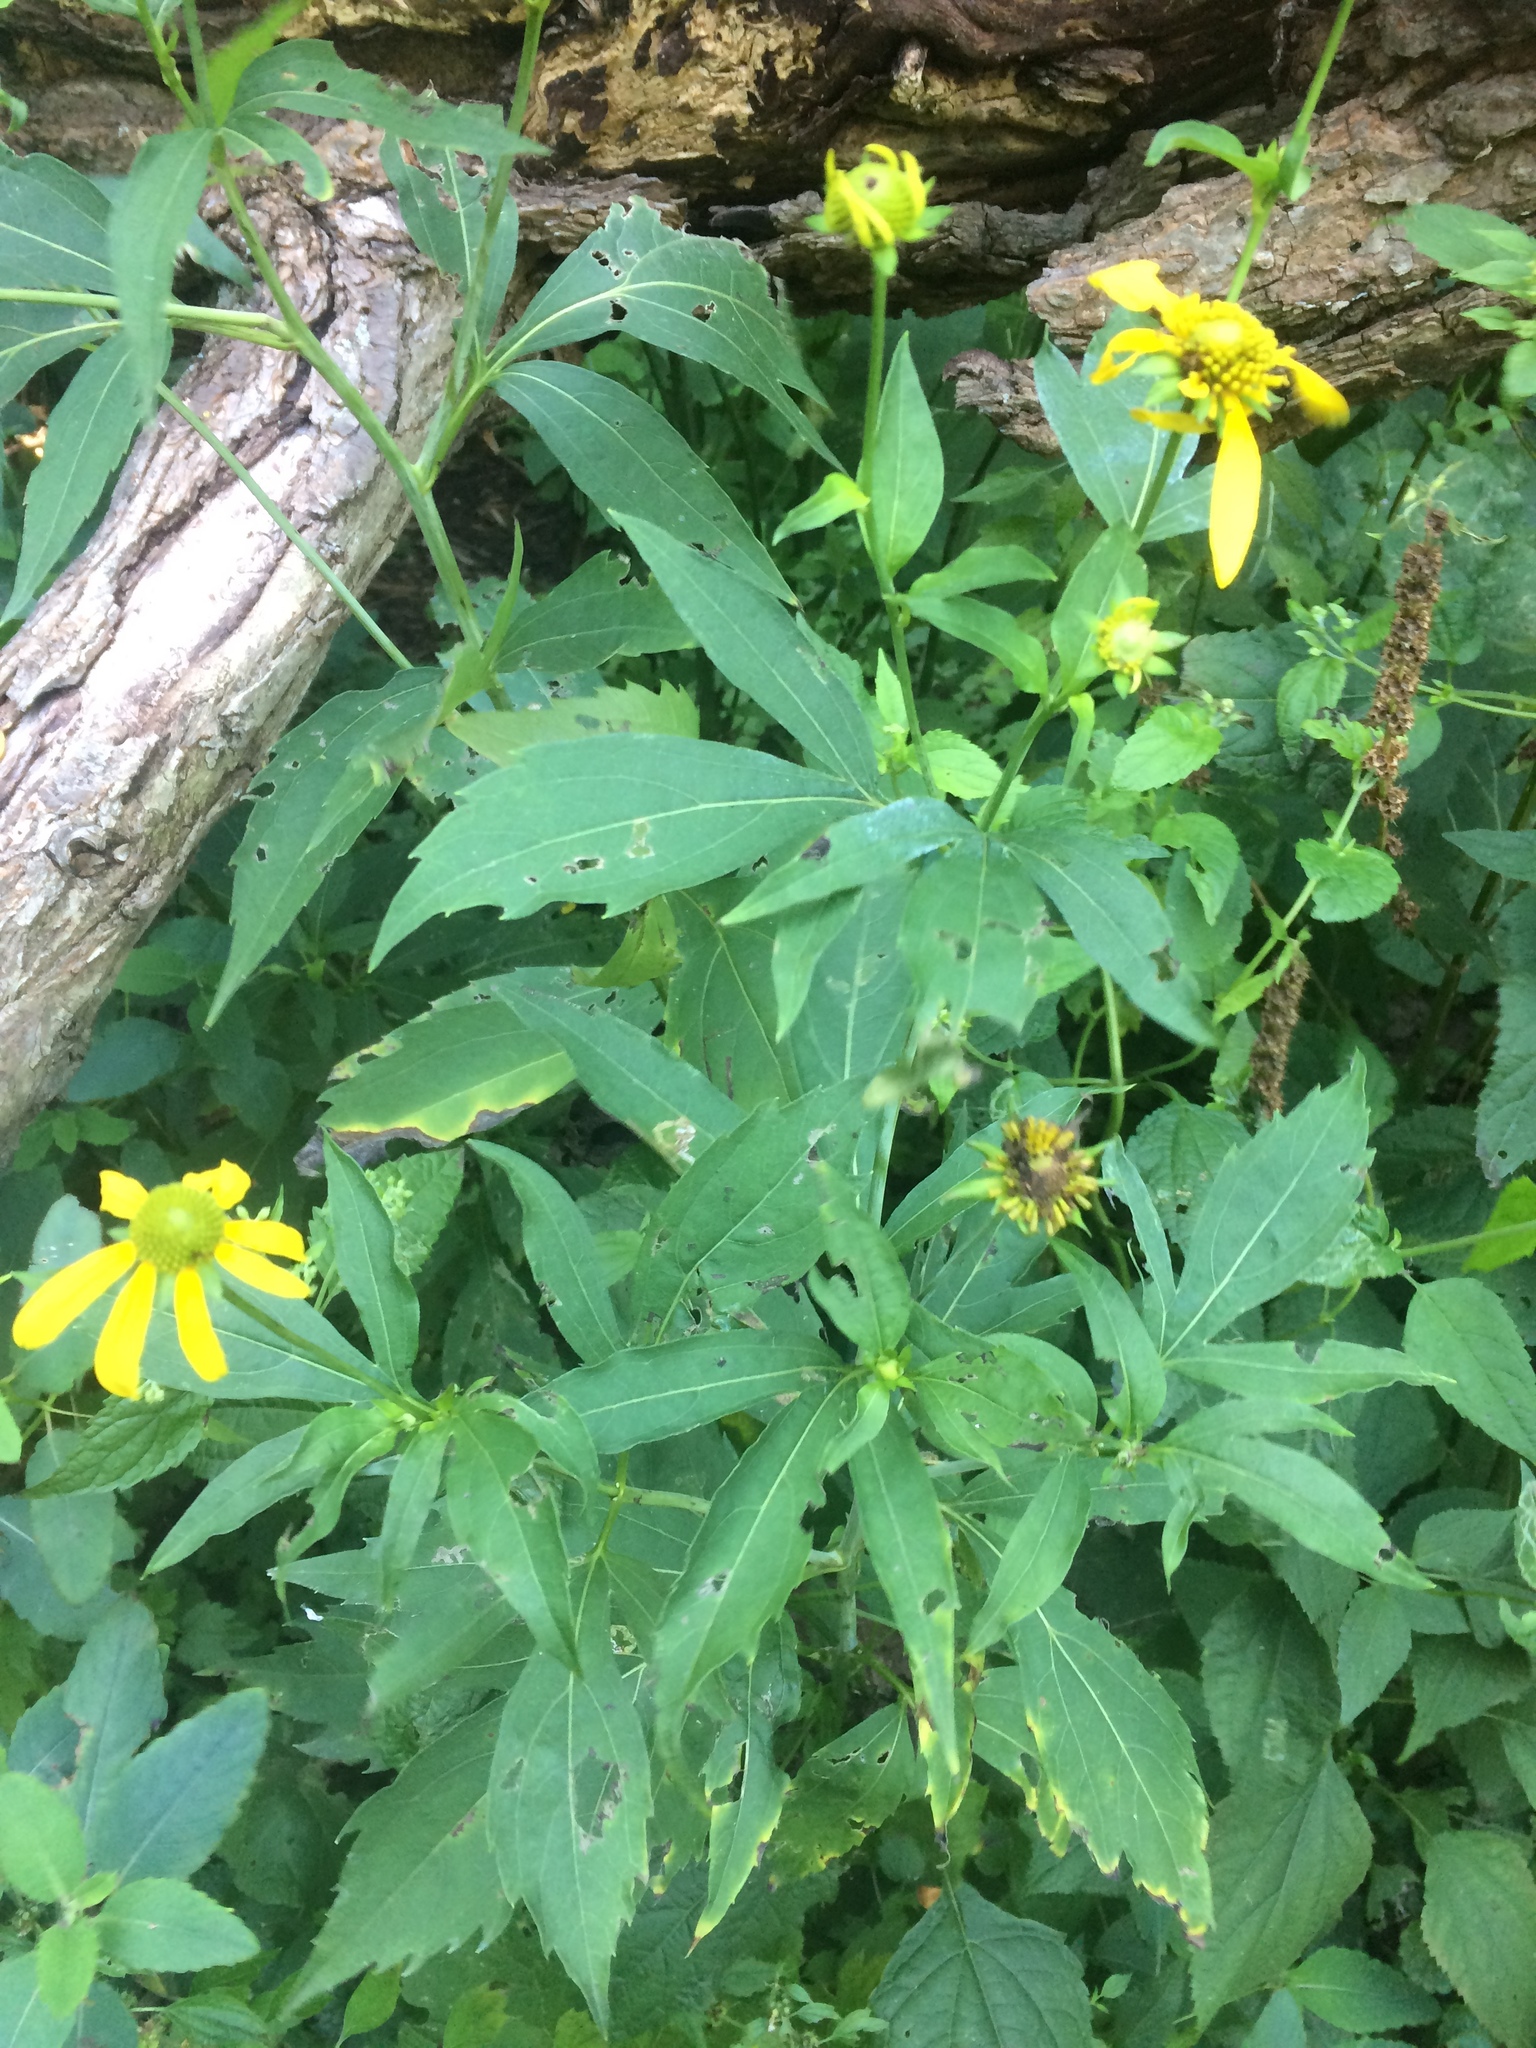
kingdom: Plantae
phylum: Tracheophyta
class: Magnoliopsida
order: Asterales
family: Asteraceae
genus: Rudbeckia
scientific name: Rudbeckia laciniata
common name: Coneflower
